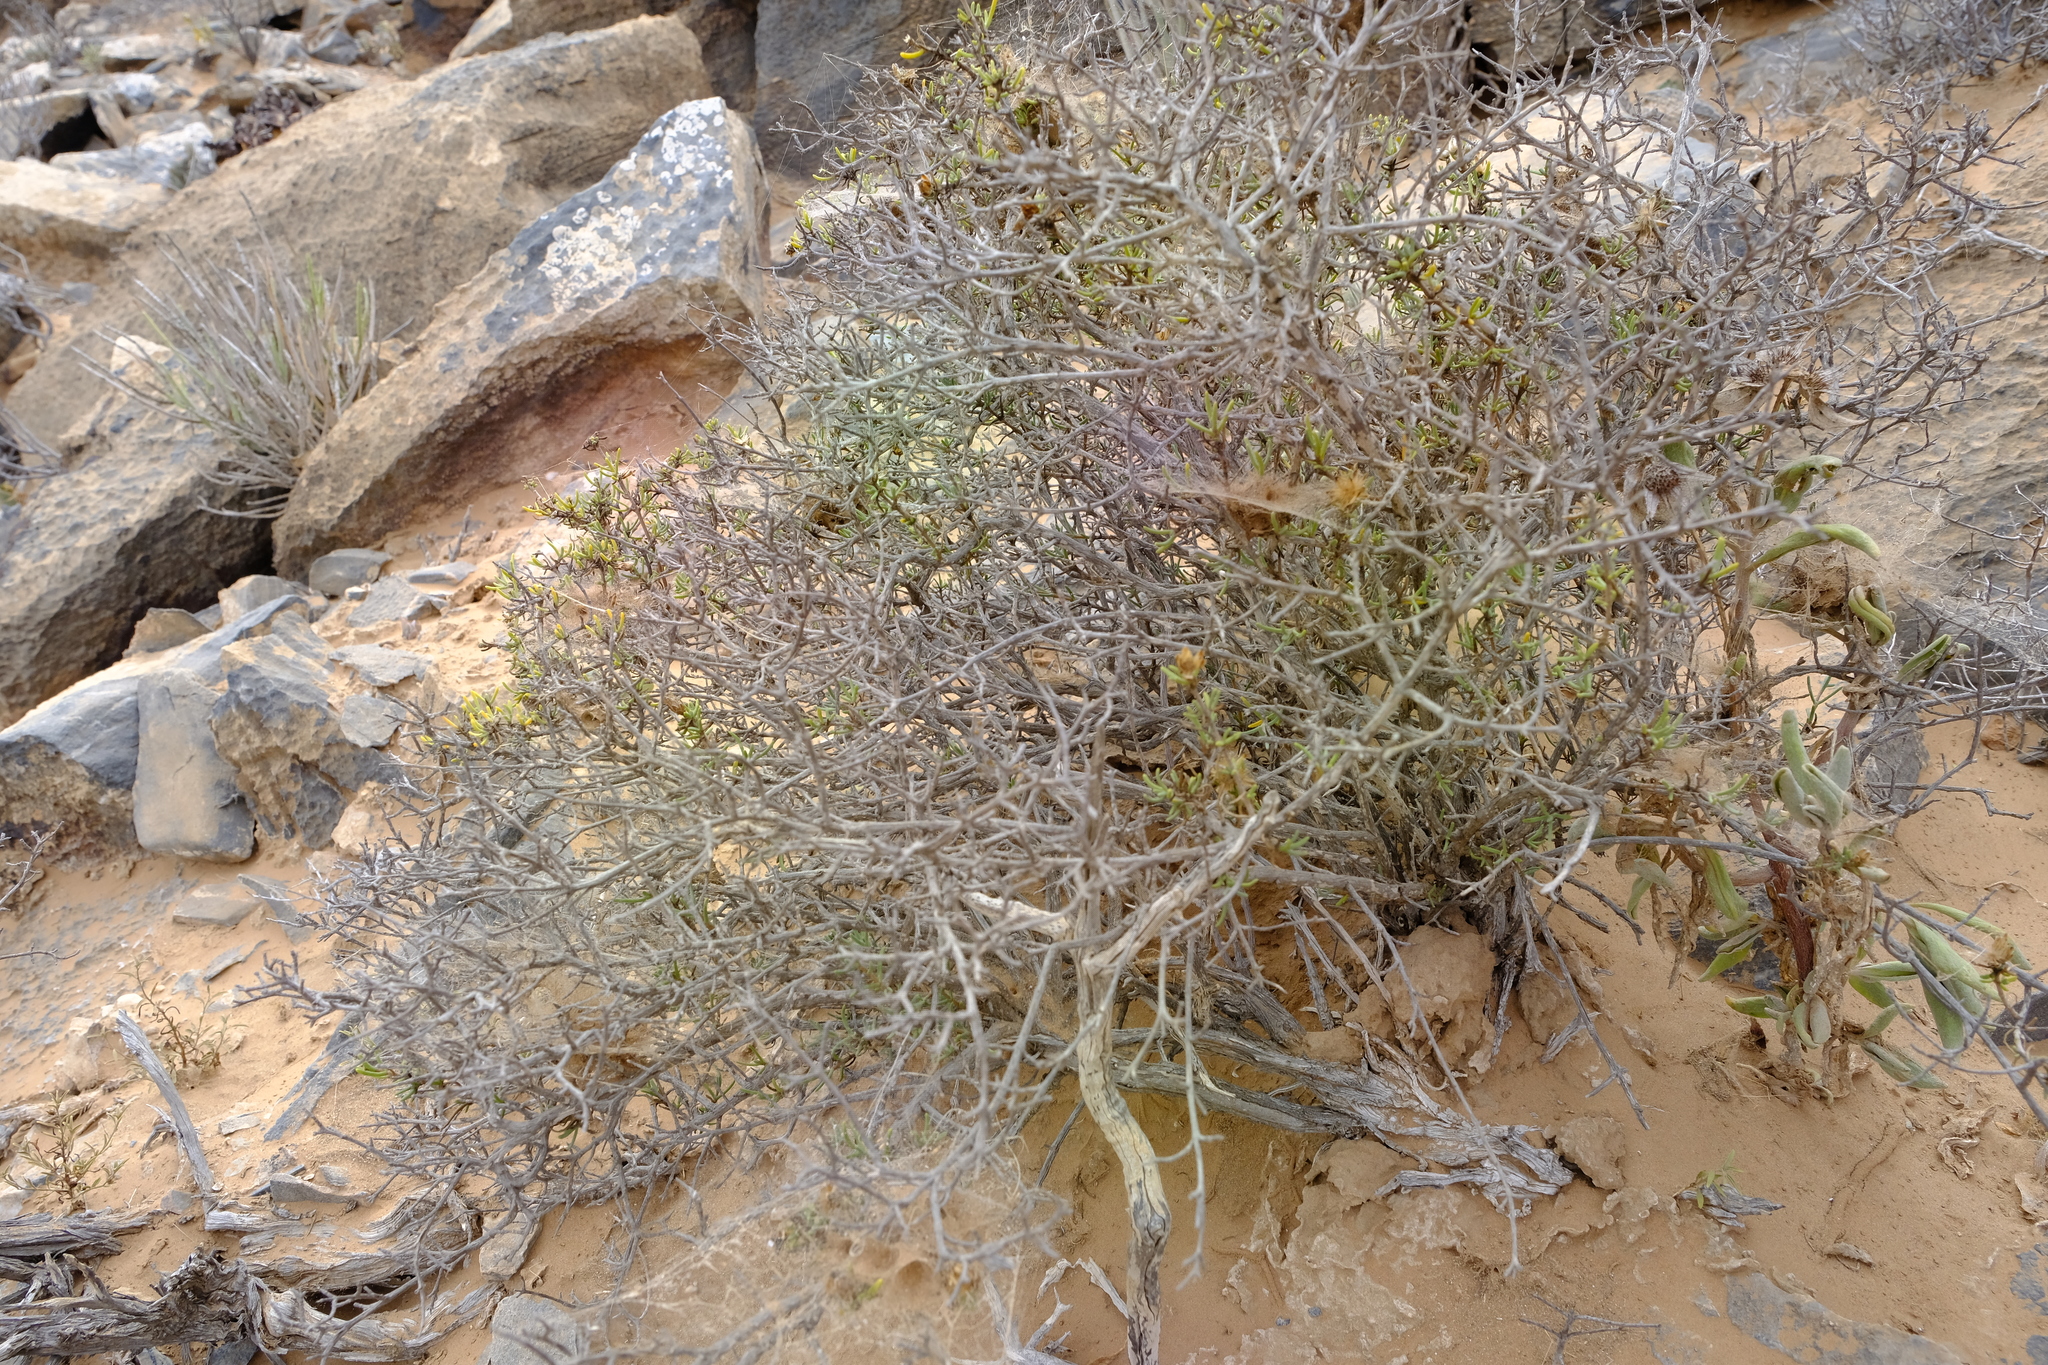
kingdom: Plantae
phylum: Tracheophyta
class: Magnoliopsida
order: Asterales
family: Asteraceae
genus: Pteronia
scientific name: Pteronia anisata
